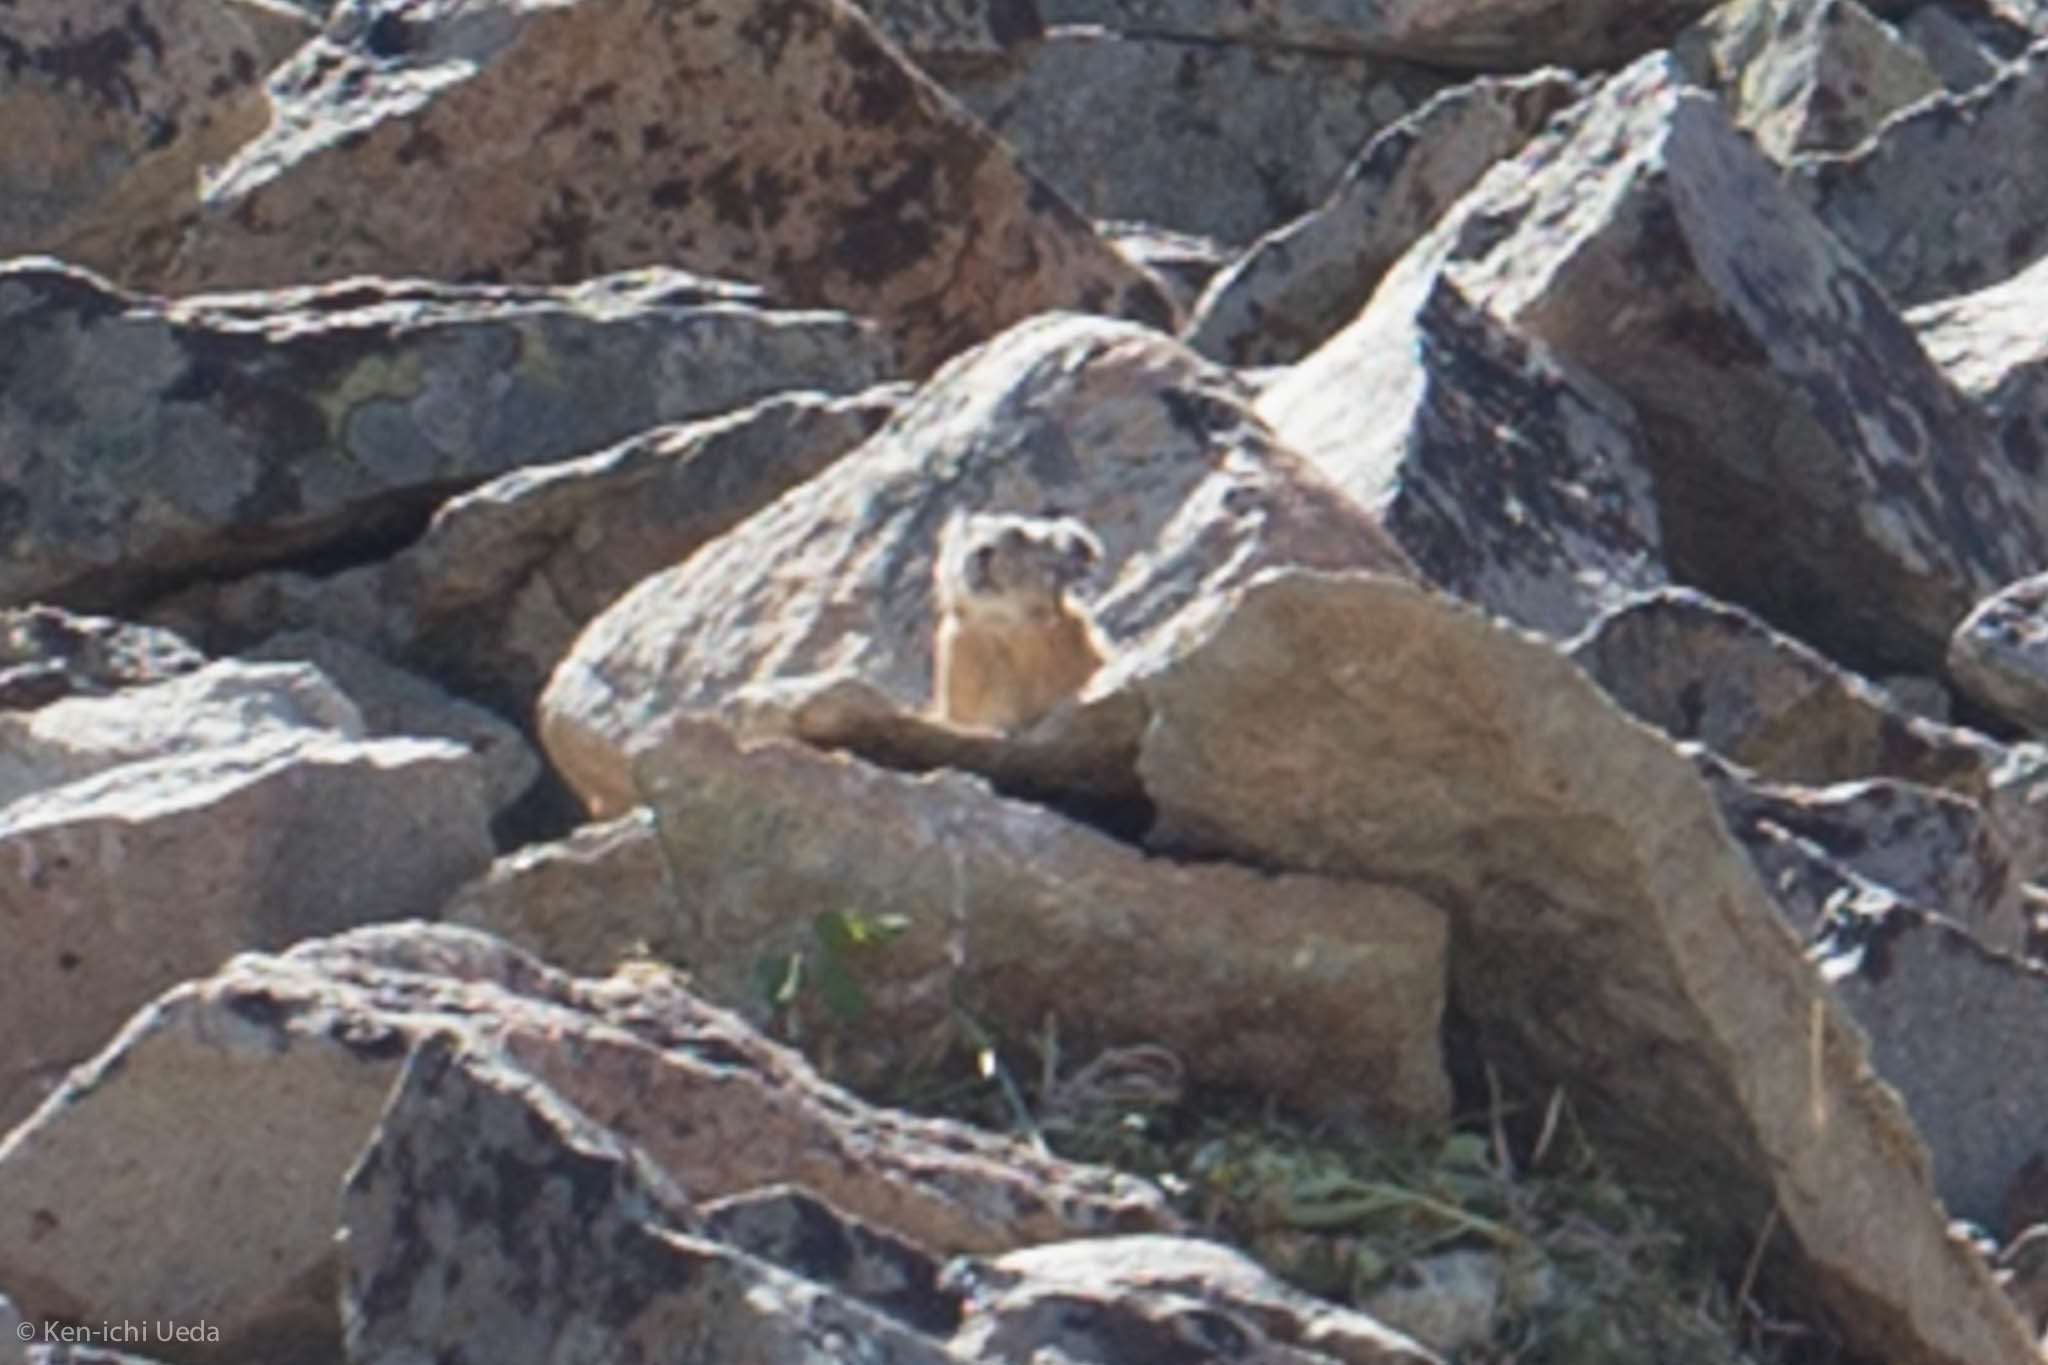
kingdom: Animalia
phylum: Chordata
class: Mammalia
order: Lagomorpha
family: Ochotonidae
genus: Ochotona
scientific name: Ochotona princeps
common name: American pika
